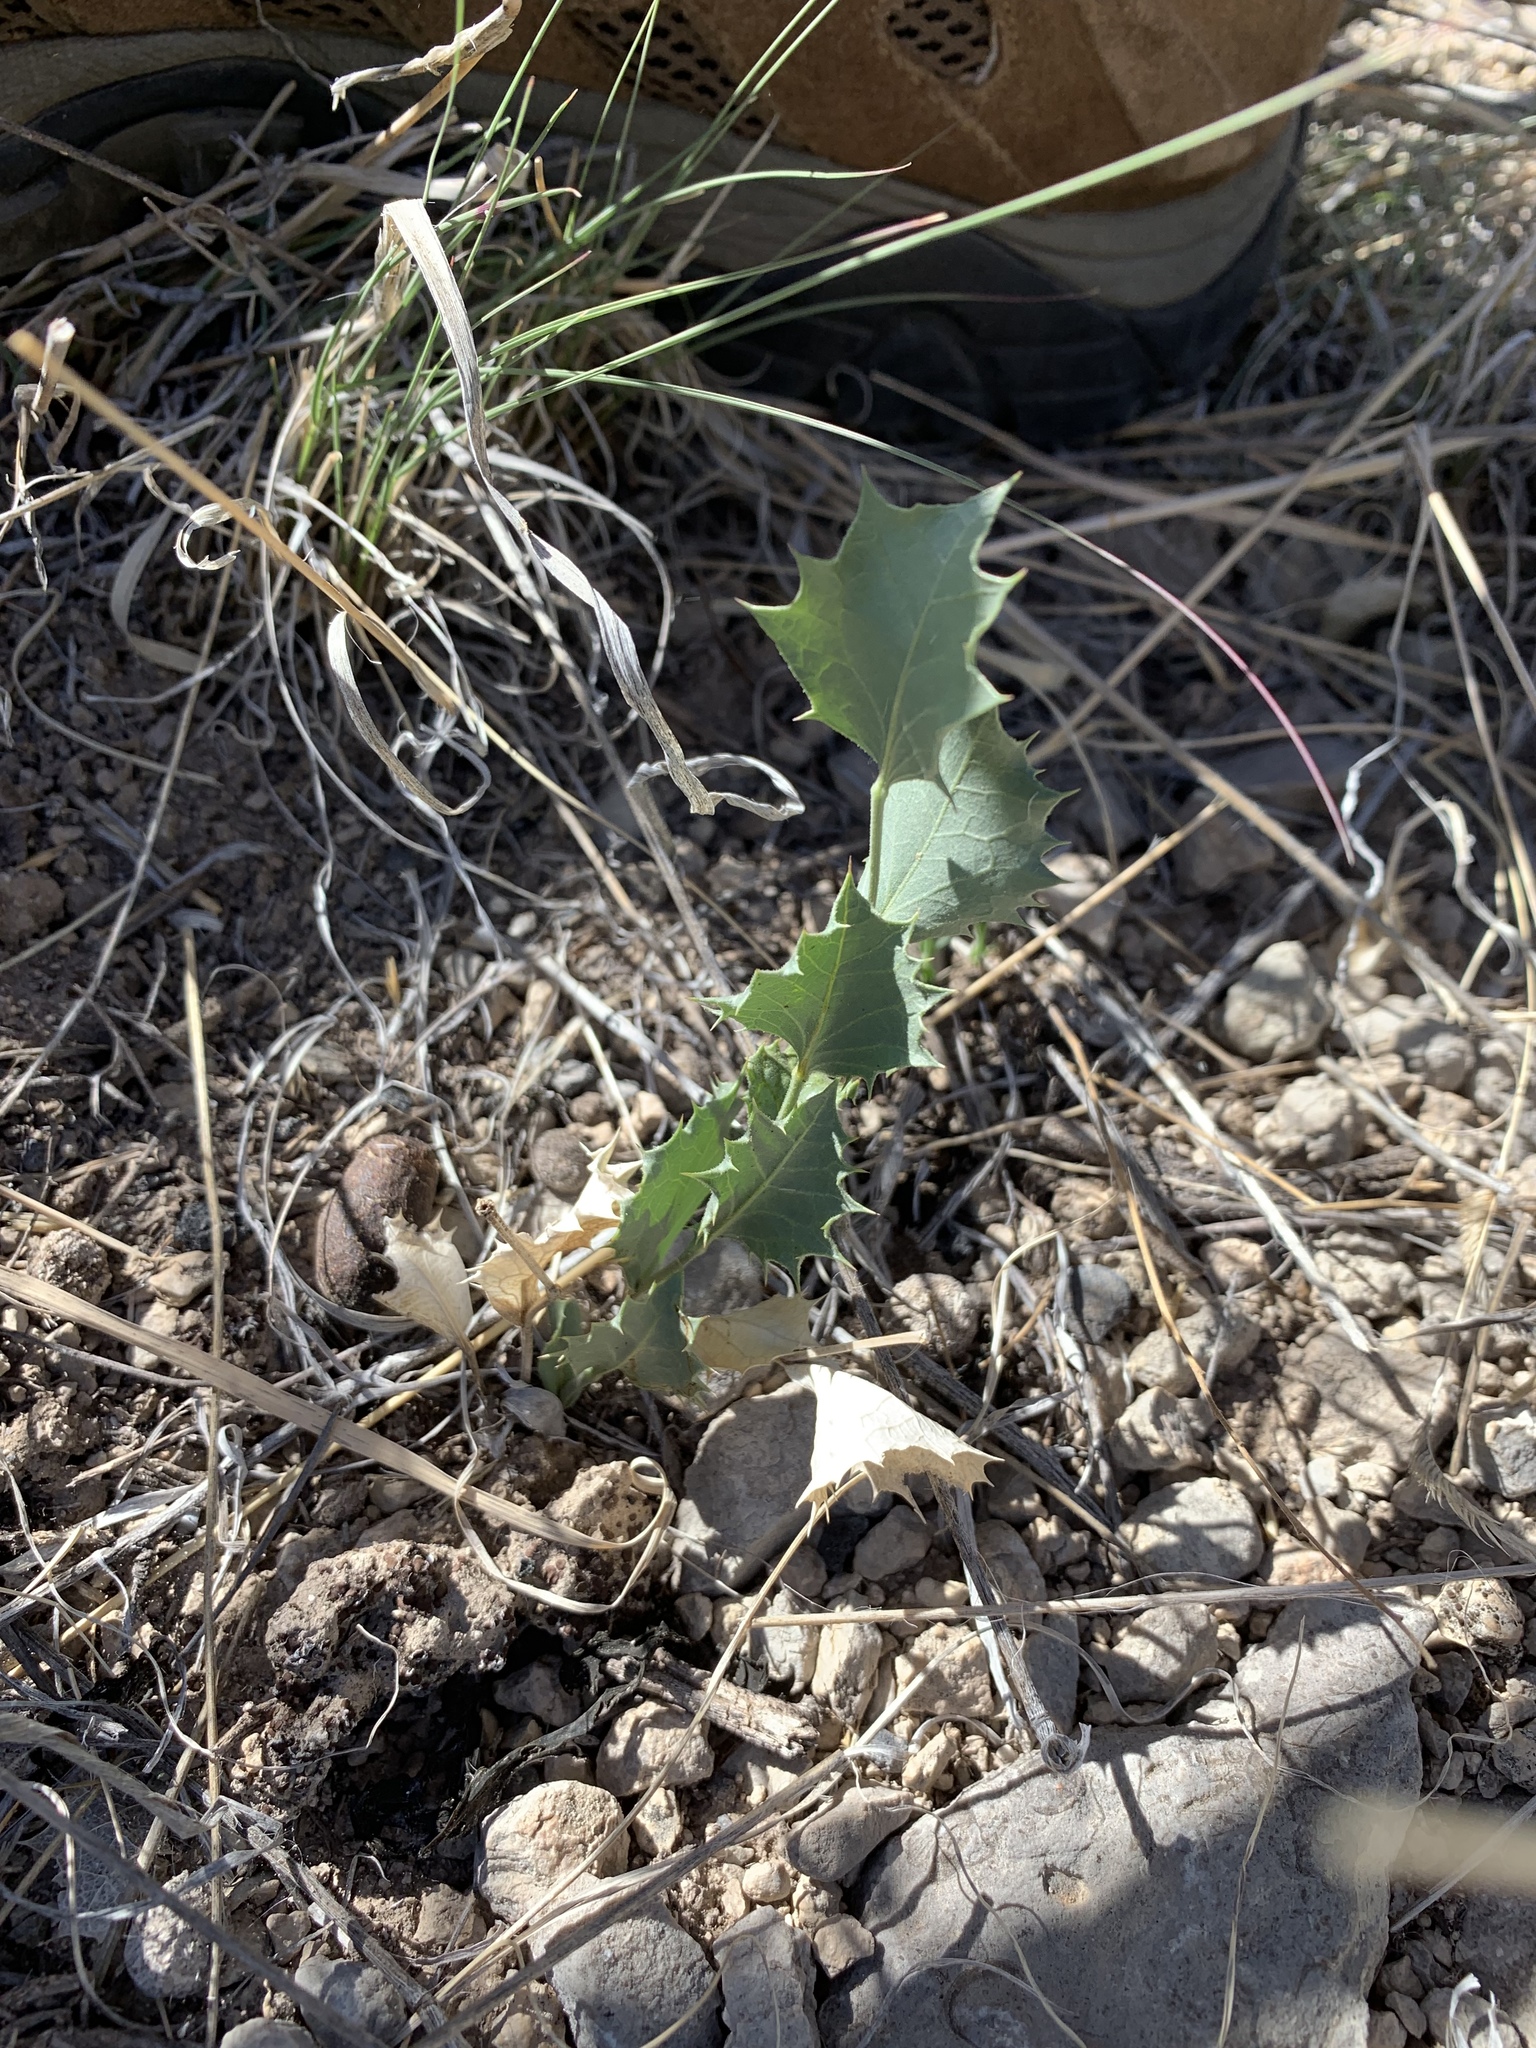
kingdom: Plantae
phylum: Tracheophyta
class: Magnoliopsida
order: Asterales
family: Asteraceae
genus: Acourtia
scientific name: Acourtia nana
